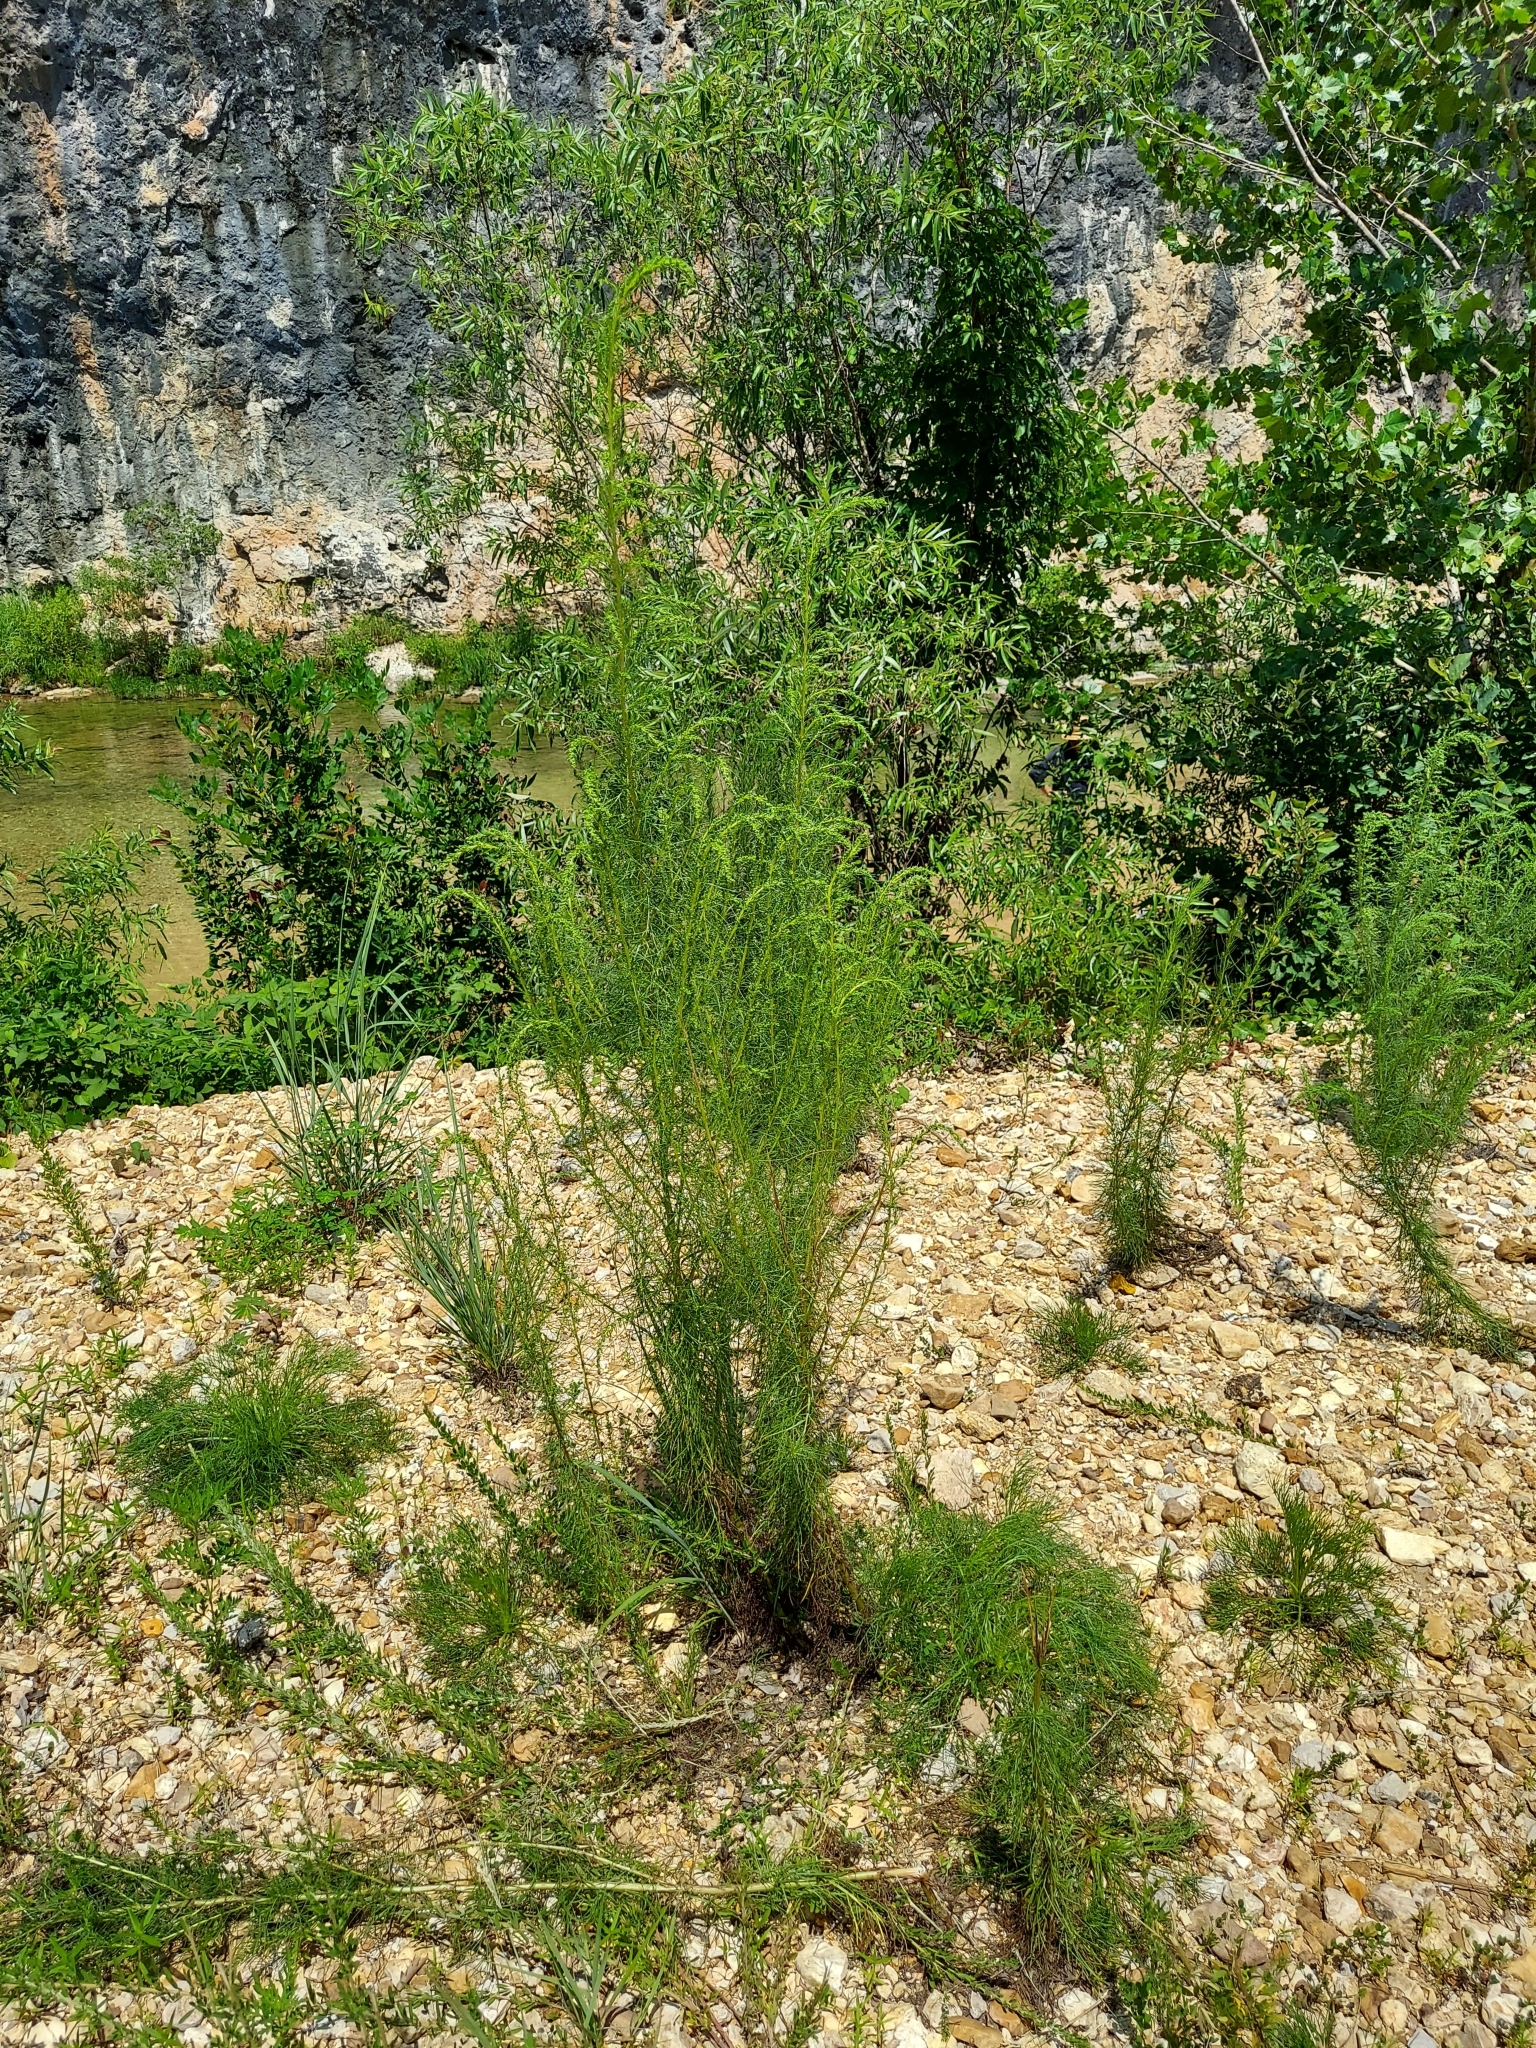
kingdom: Plantae
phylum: Tracheophyta
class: Magnoliopsida
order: Asterales
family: Asteraceae
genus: Eupatorium
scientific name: Eupatorium capillifolium
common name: Dog-fennel
